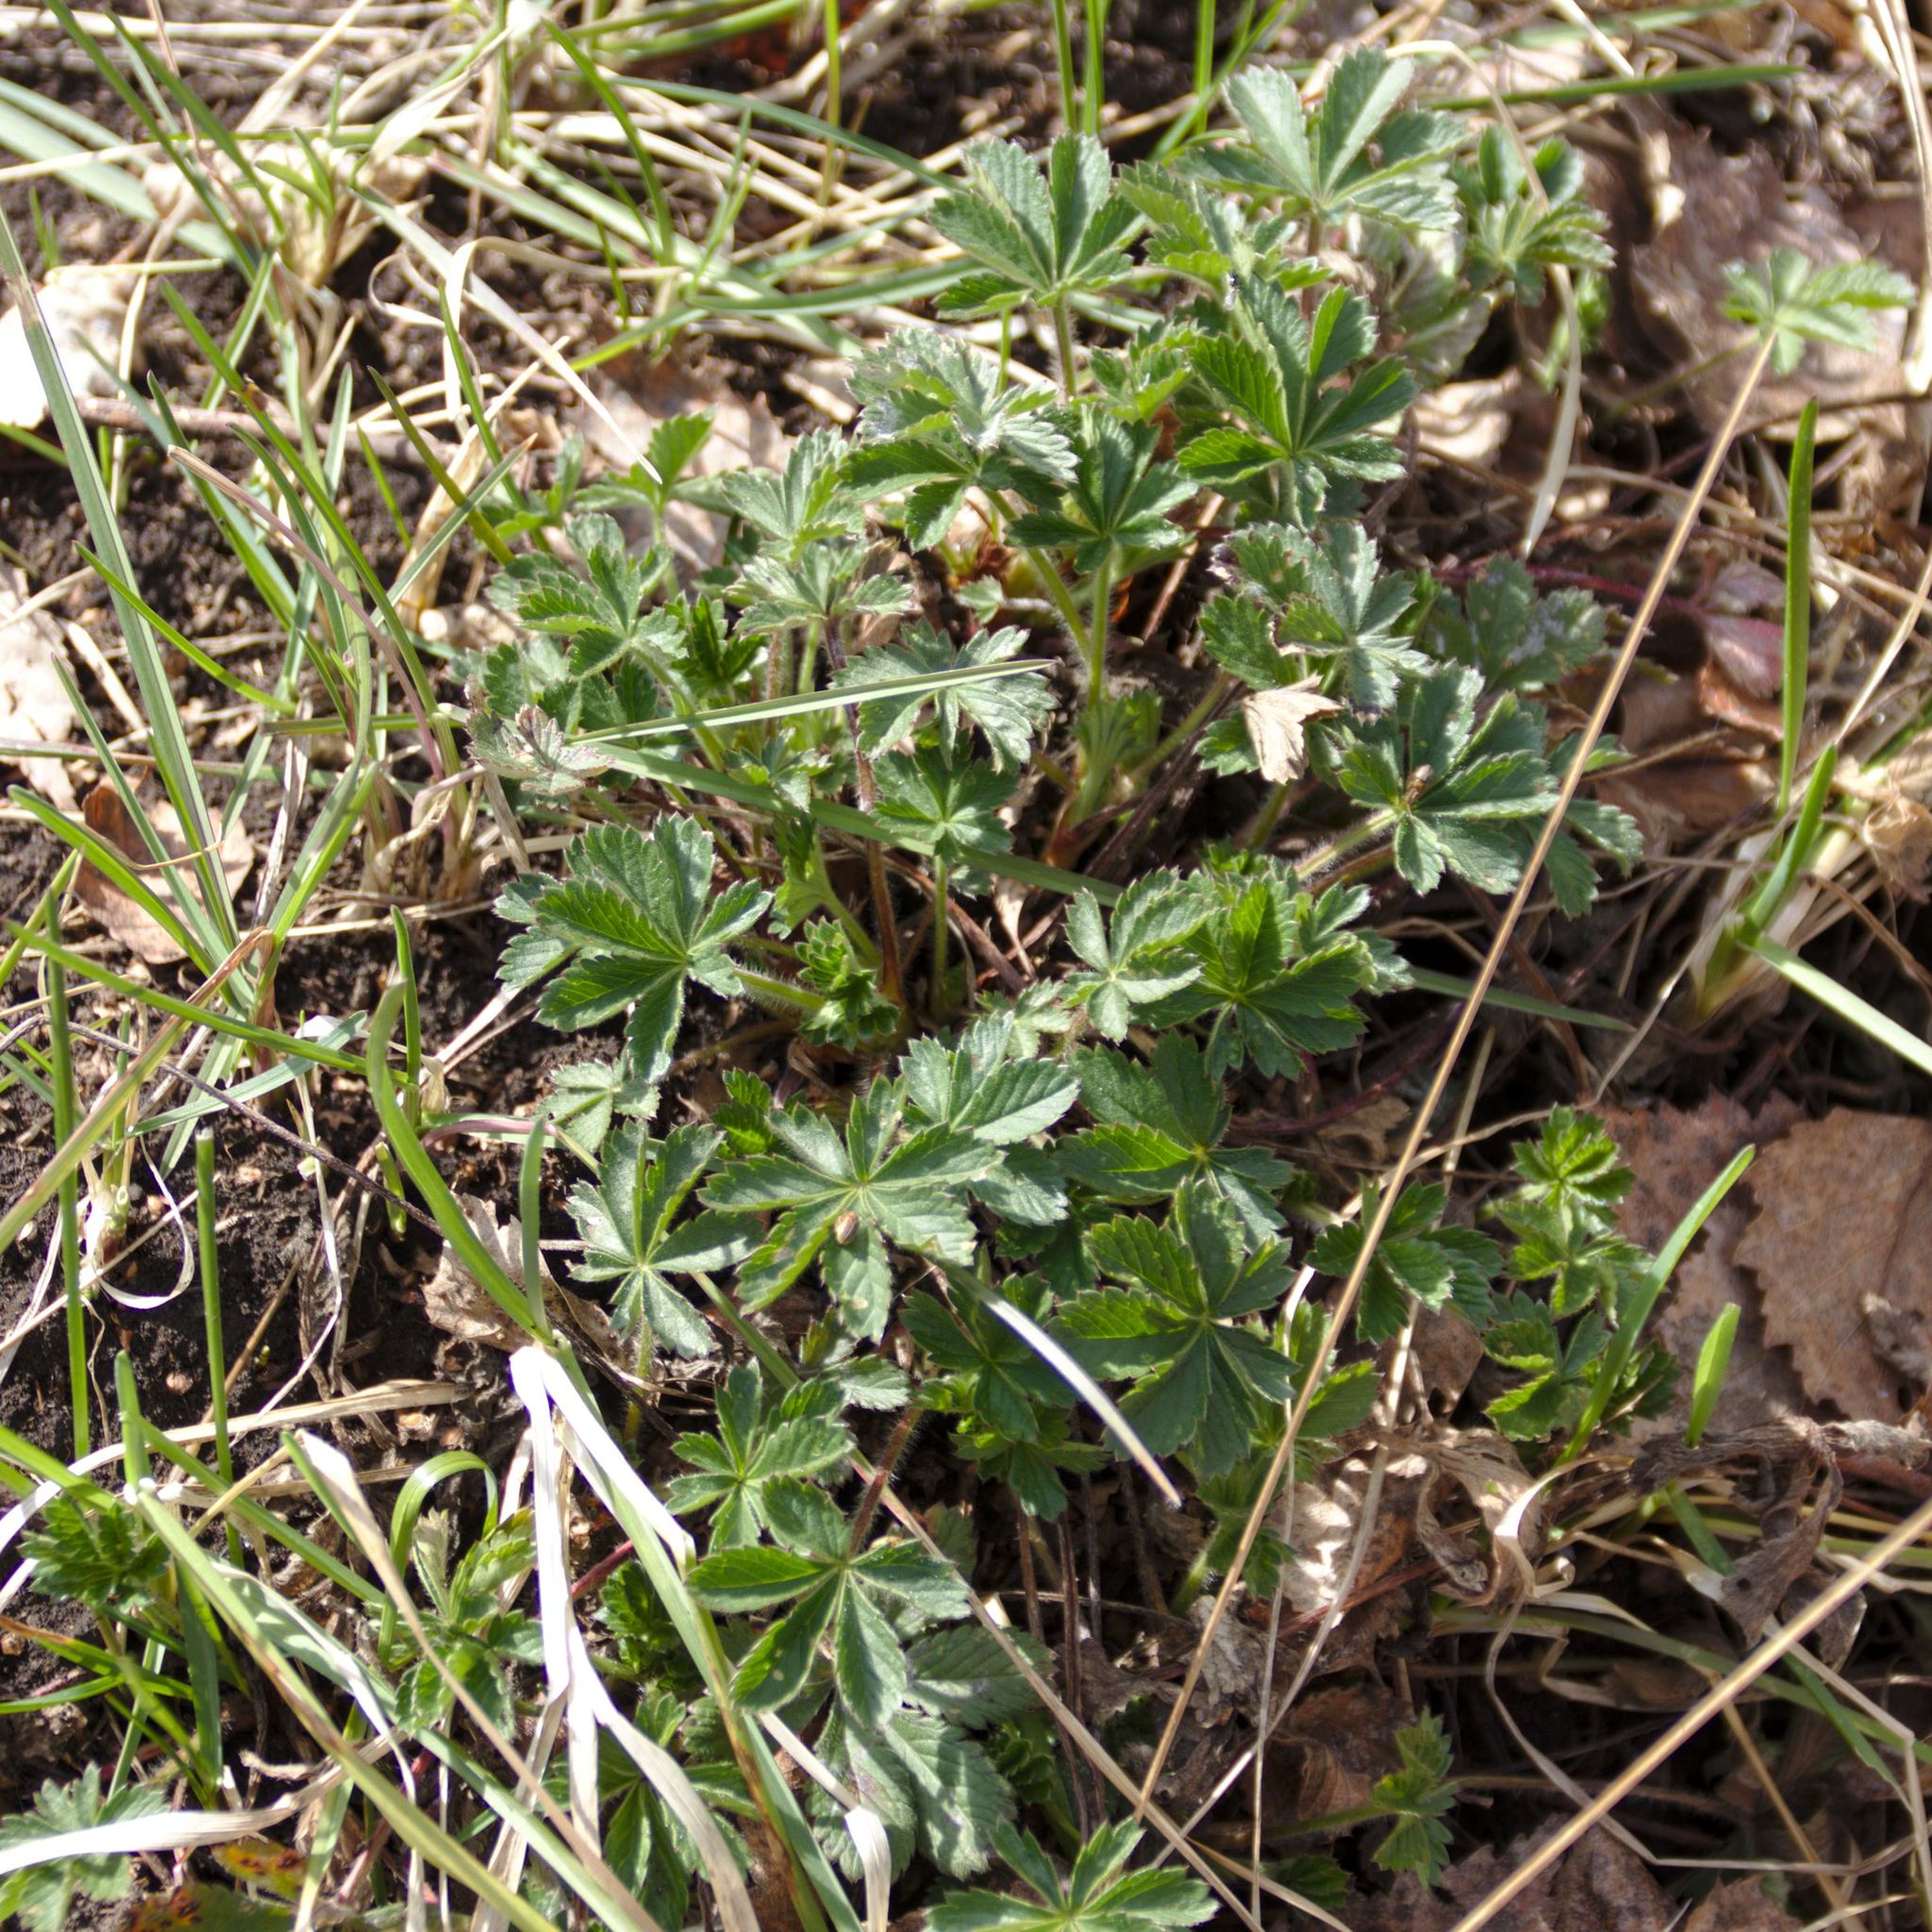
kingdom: Plantae
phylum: Tracheophyta
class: Magnoliopsida
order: Rosales
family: Rosaceae
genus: Potentilla
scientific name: Potentilla
